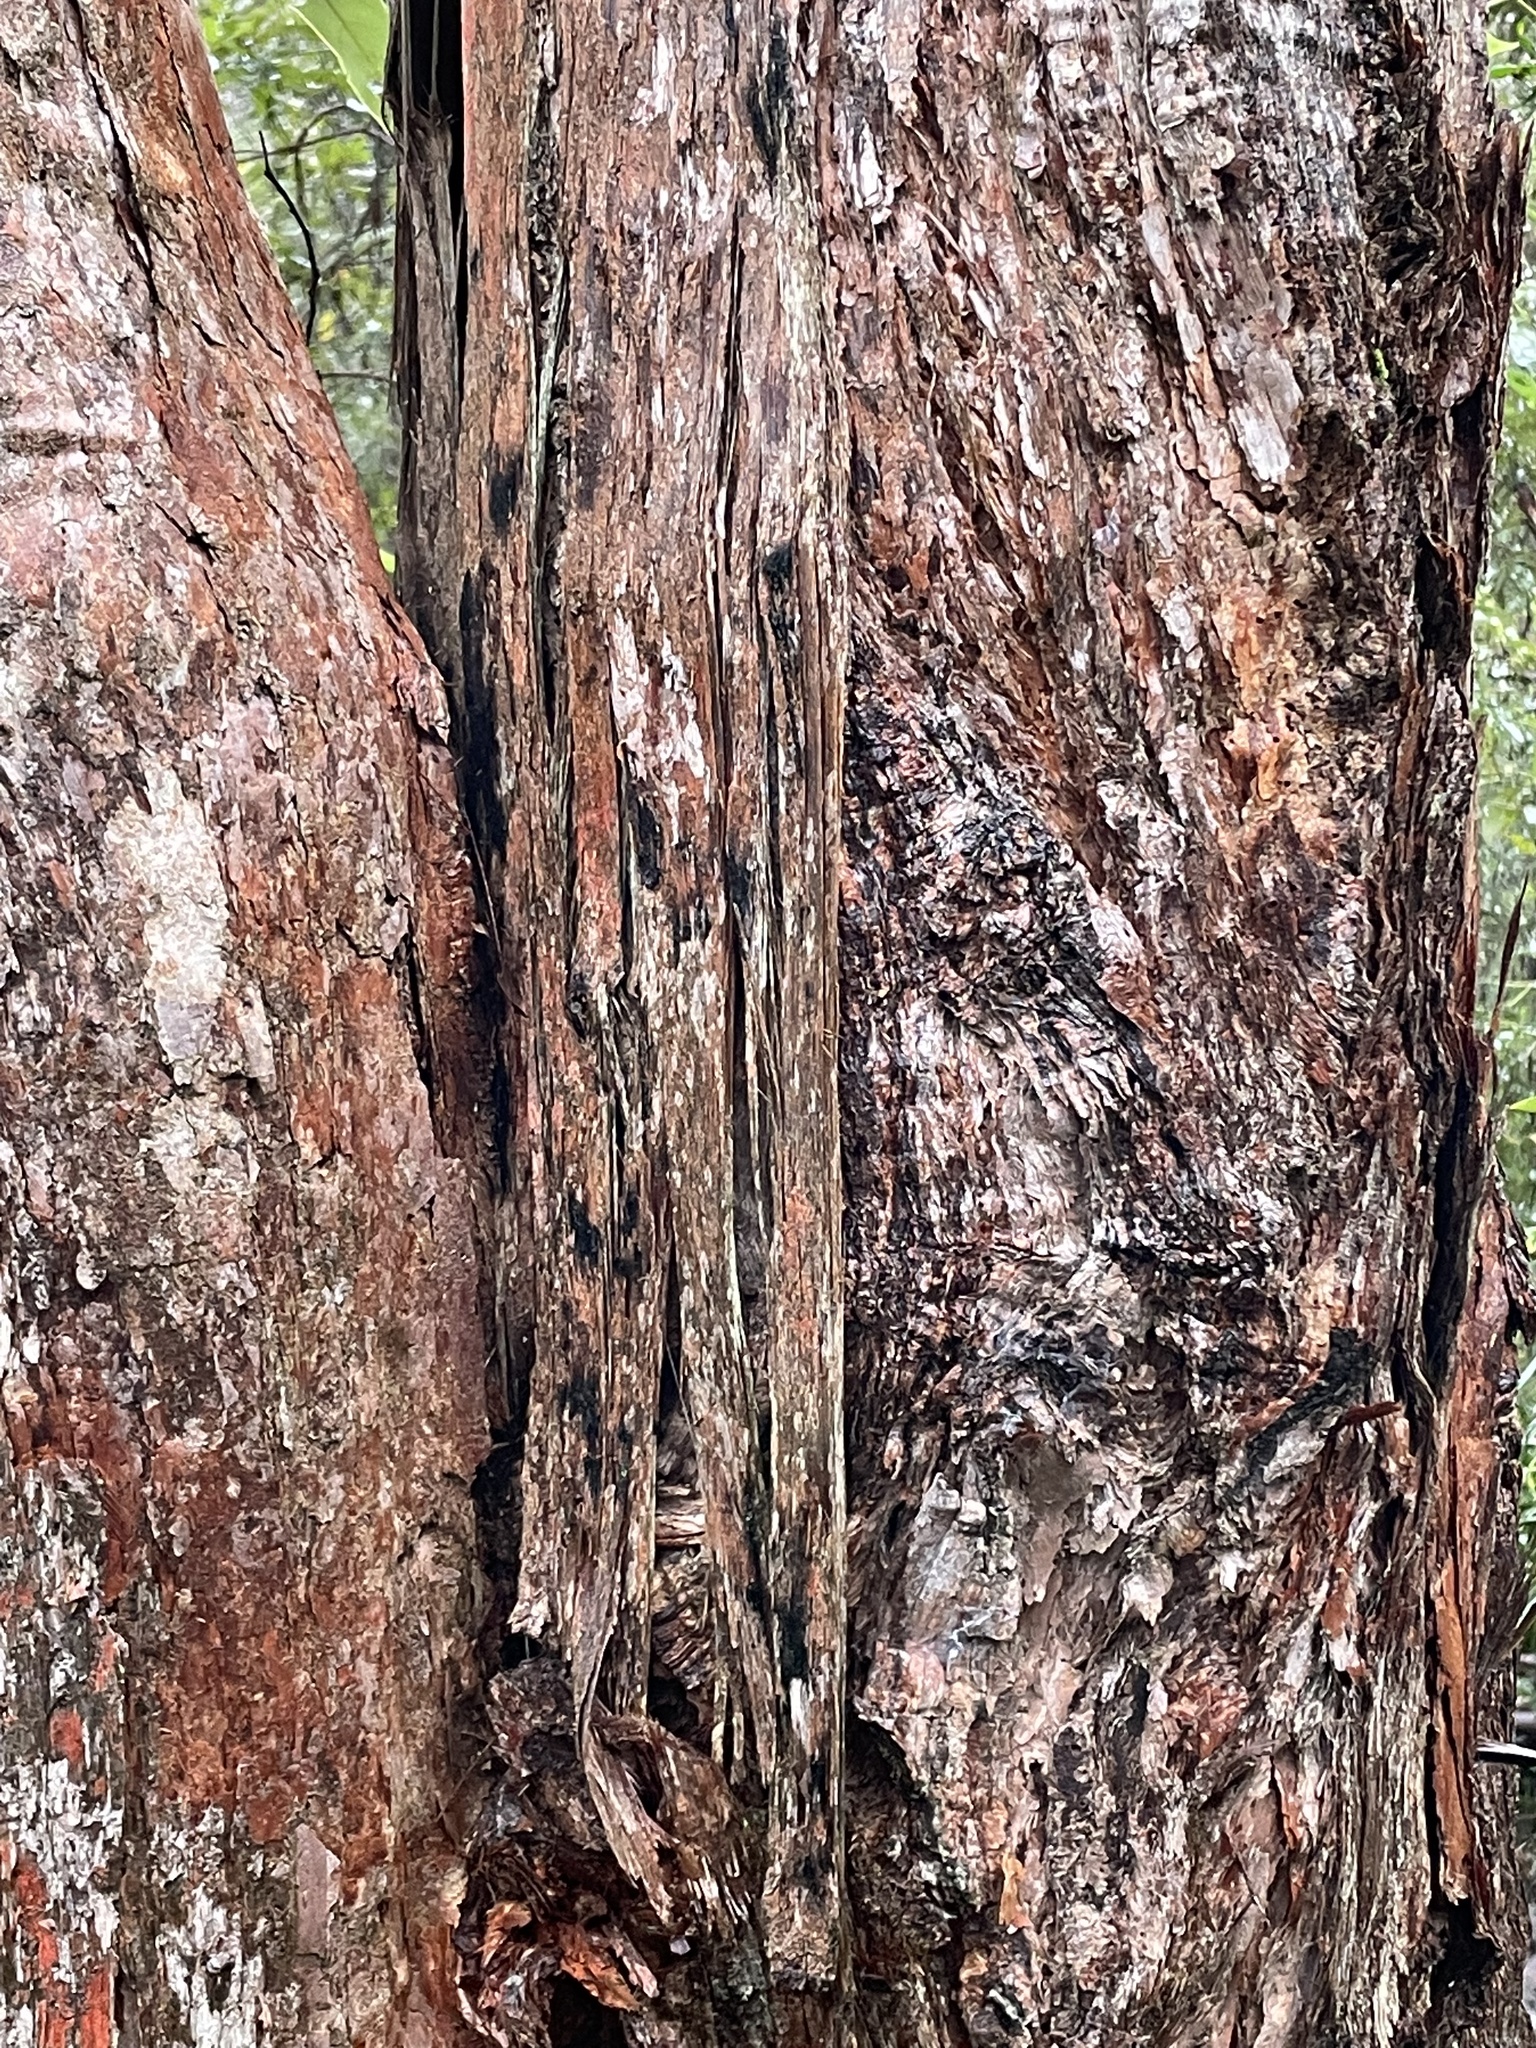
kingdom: Plantae
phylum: Tracheophyta
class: Magnoliopsida
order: Myrtales
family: Myrtaceae
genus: Eucalyptus
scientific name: Eucalyptus microcorys
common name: Tallowwood
